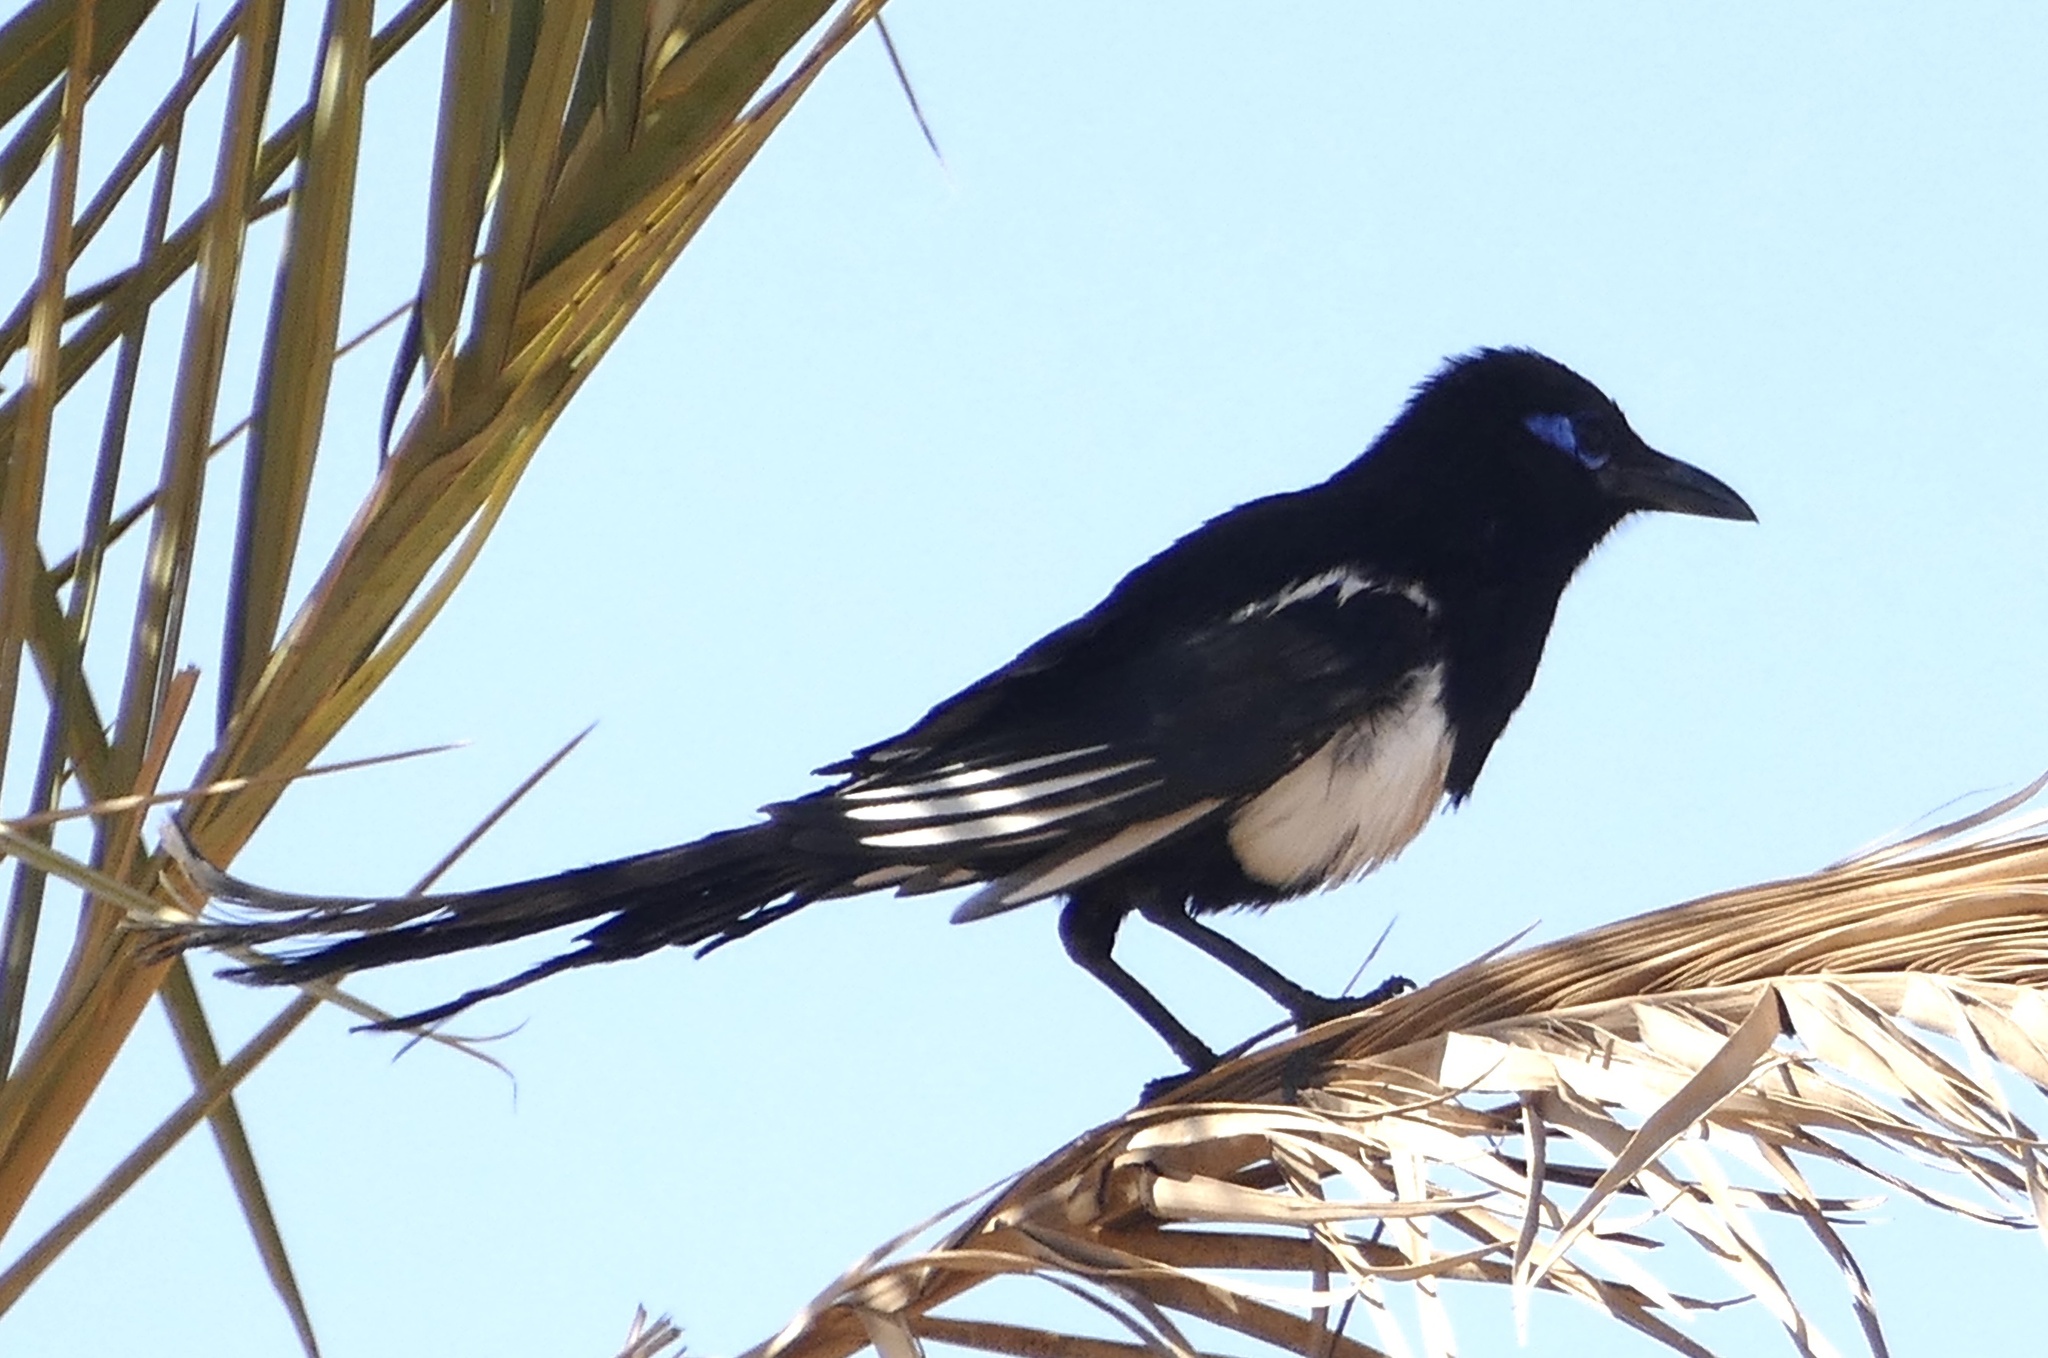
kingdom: Animalia
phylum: Chordata
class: Aves
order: Passeriformes
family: Corvidae
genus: Pica
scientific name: Pica mauritanica
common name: Maghreb magpie
